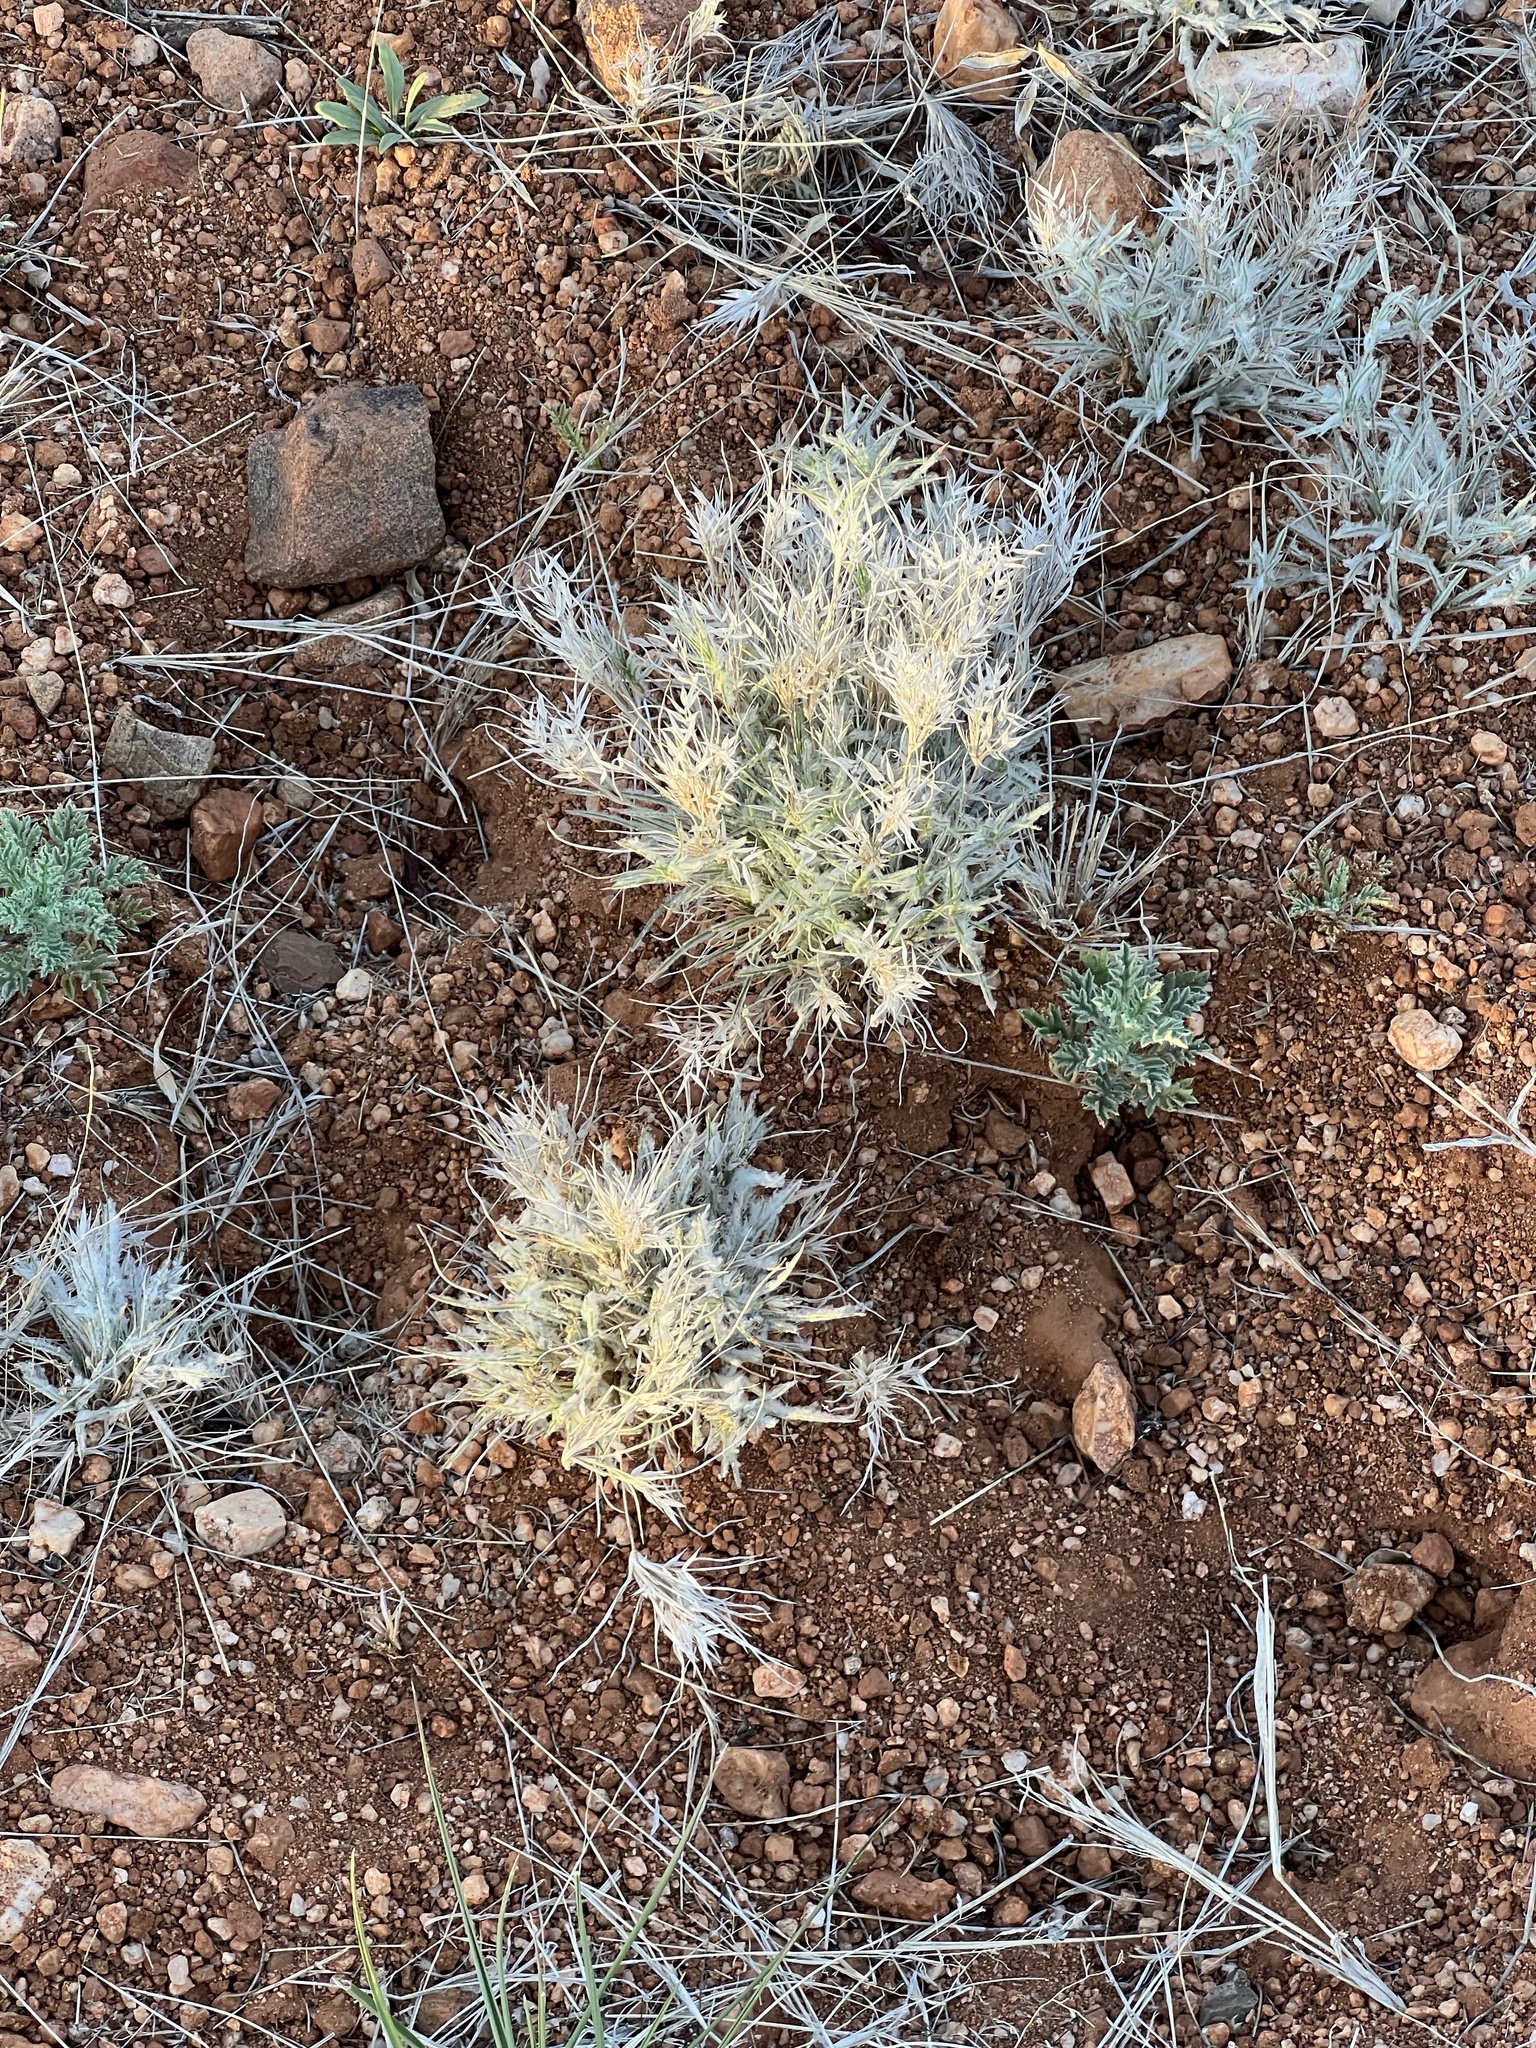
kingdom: Plantae
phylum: Tracheophyta
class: Liliopsida
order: Poales
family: Poaceae
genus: Dasyochloa
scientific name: Dasyochloa pulchella
